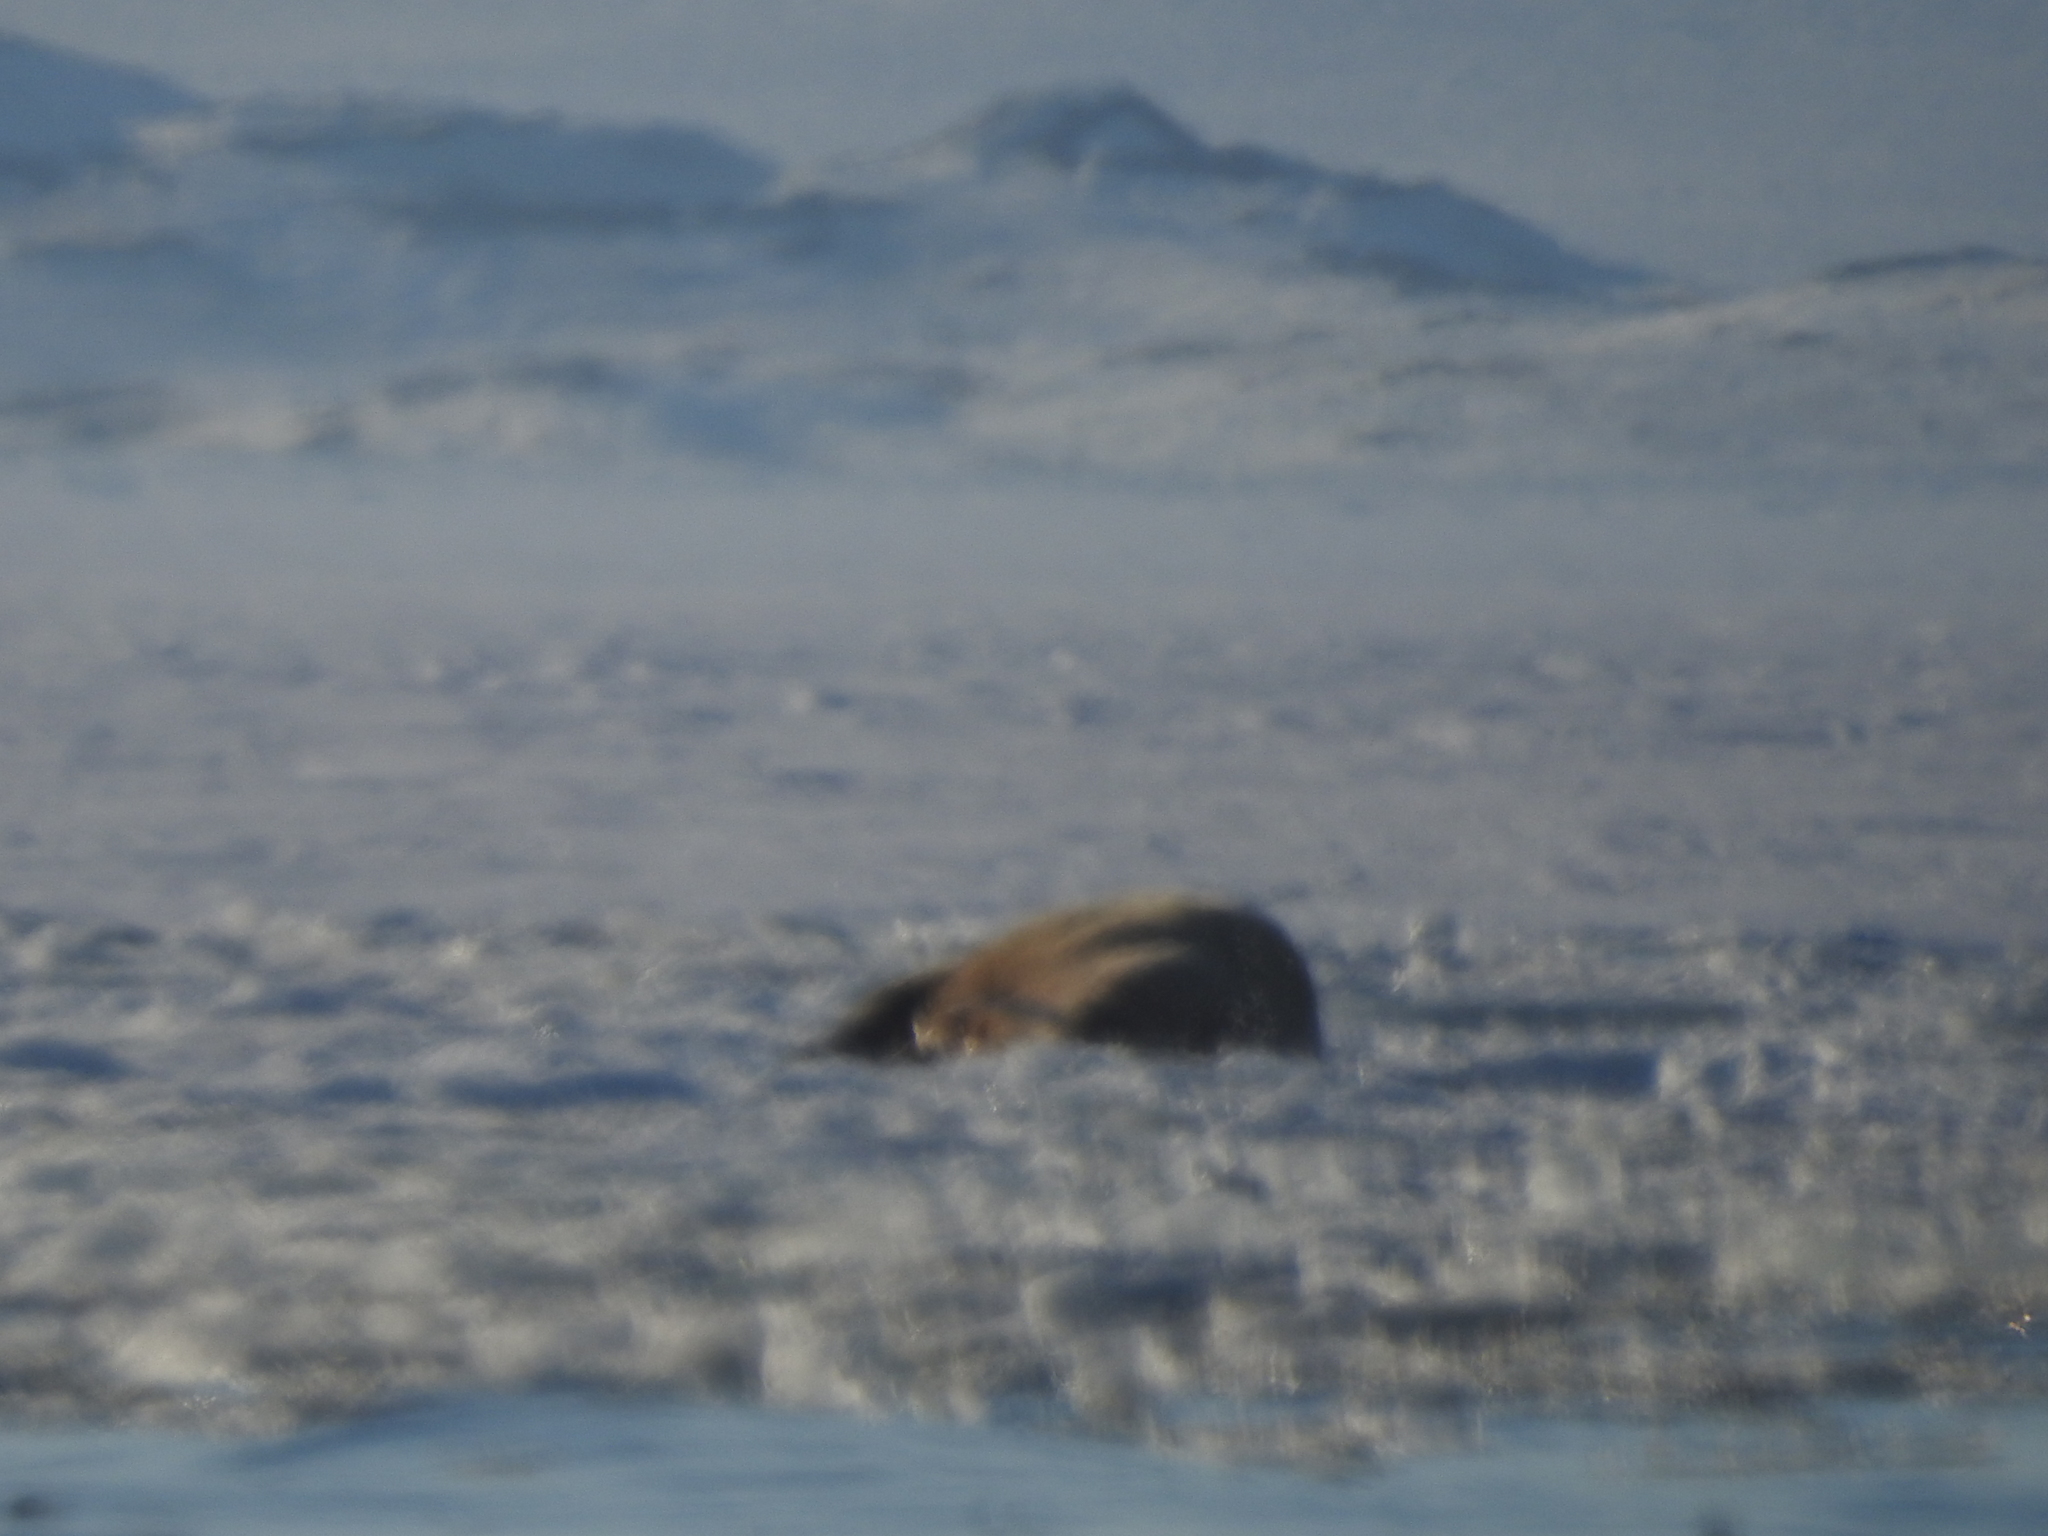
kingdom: Animalia
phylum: Chordata
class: Mammalia
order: Carnivora
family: Odobenidae
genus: Odobenus
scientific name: Odobenus rosmarus
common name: Walrus
